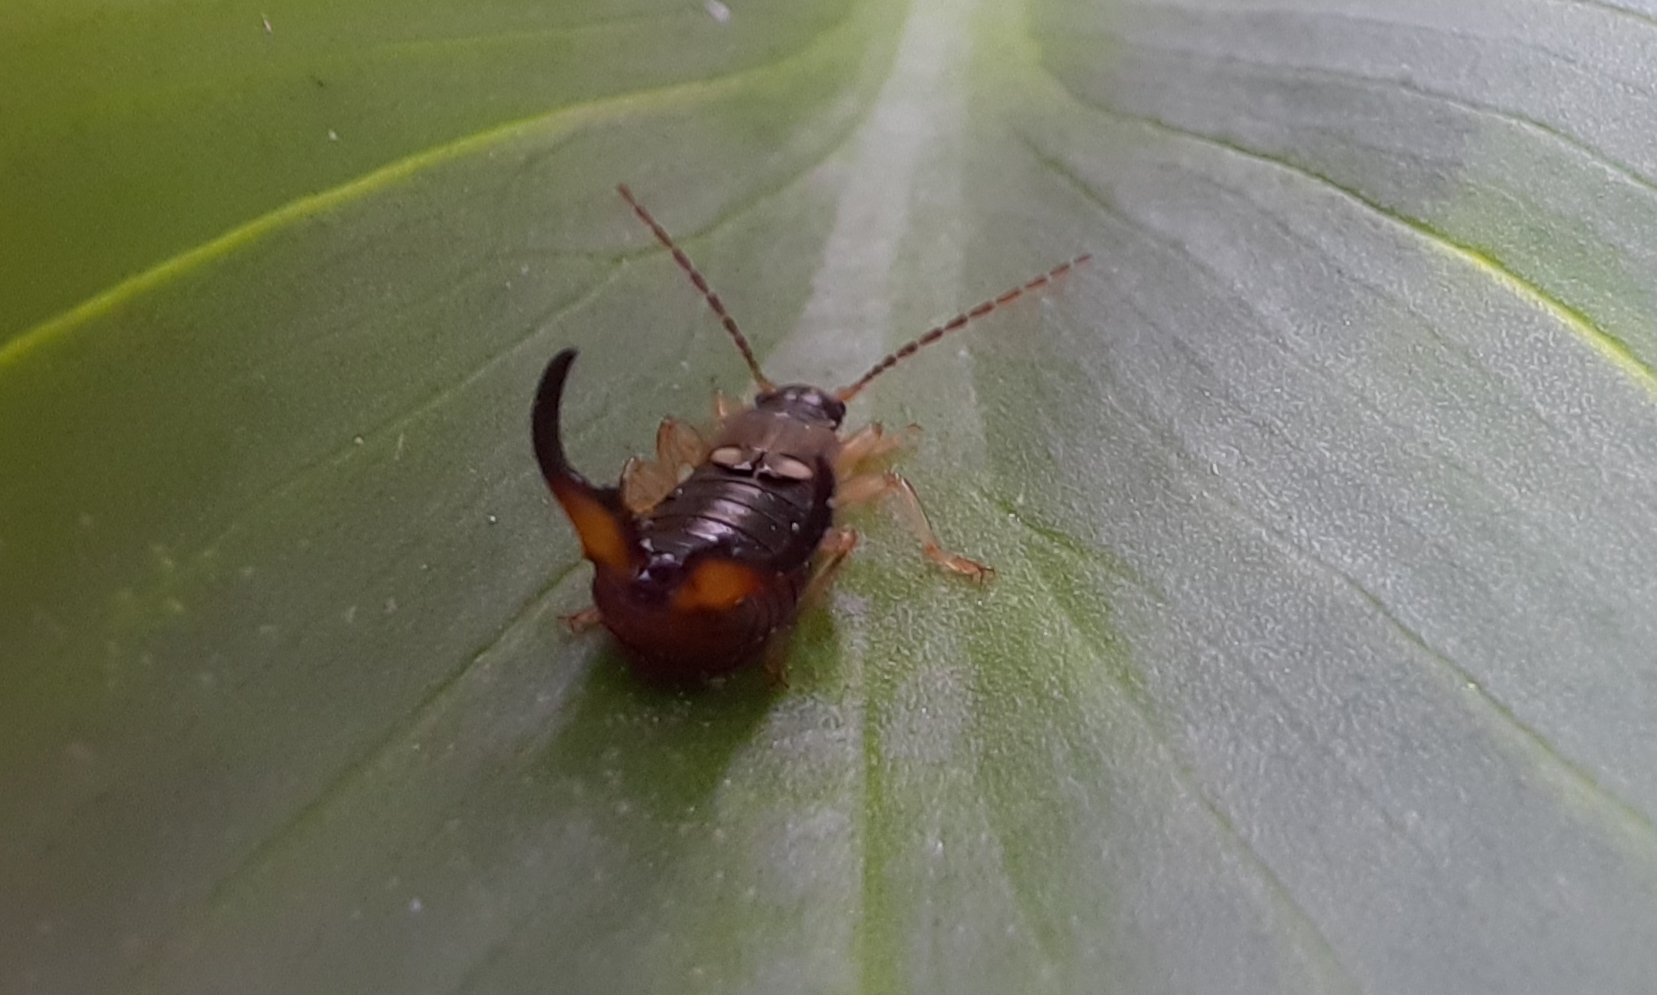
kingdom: Animalia
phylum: Arthropoda
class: Insecta
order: Dermaptera
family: Forficulidae
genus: Forficula
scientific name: Forficula
